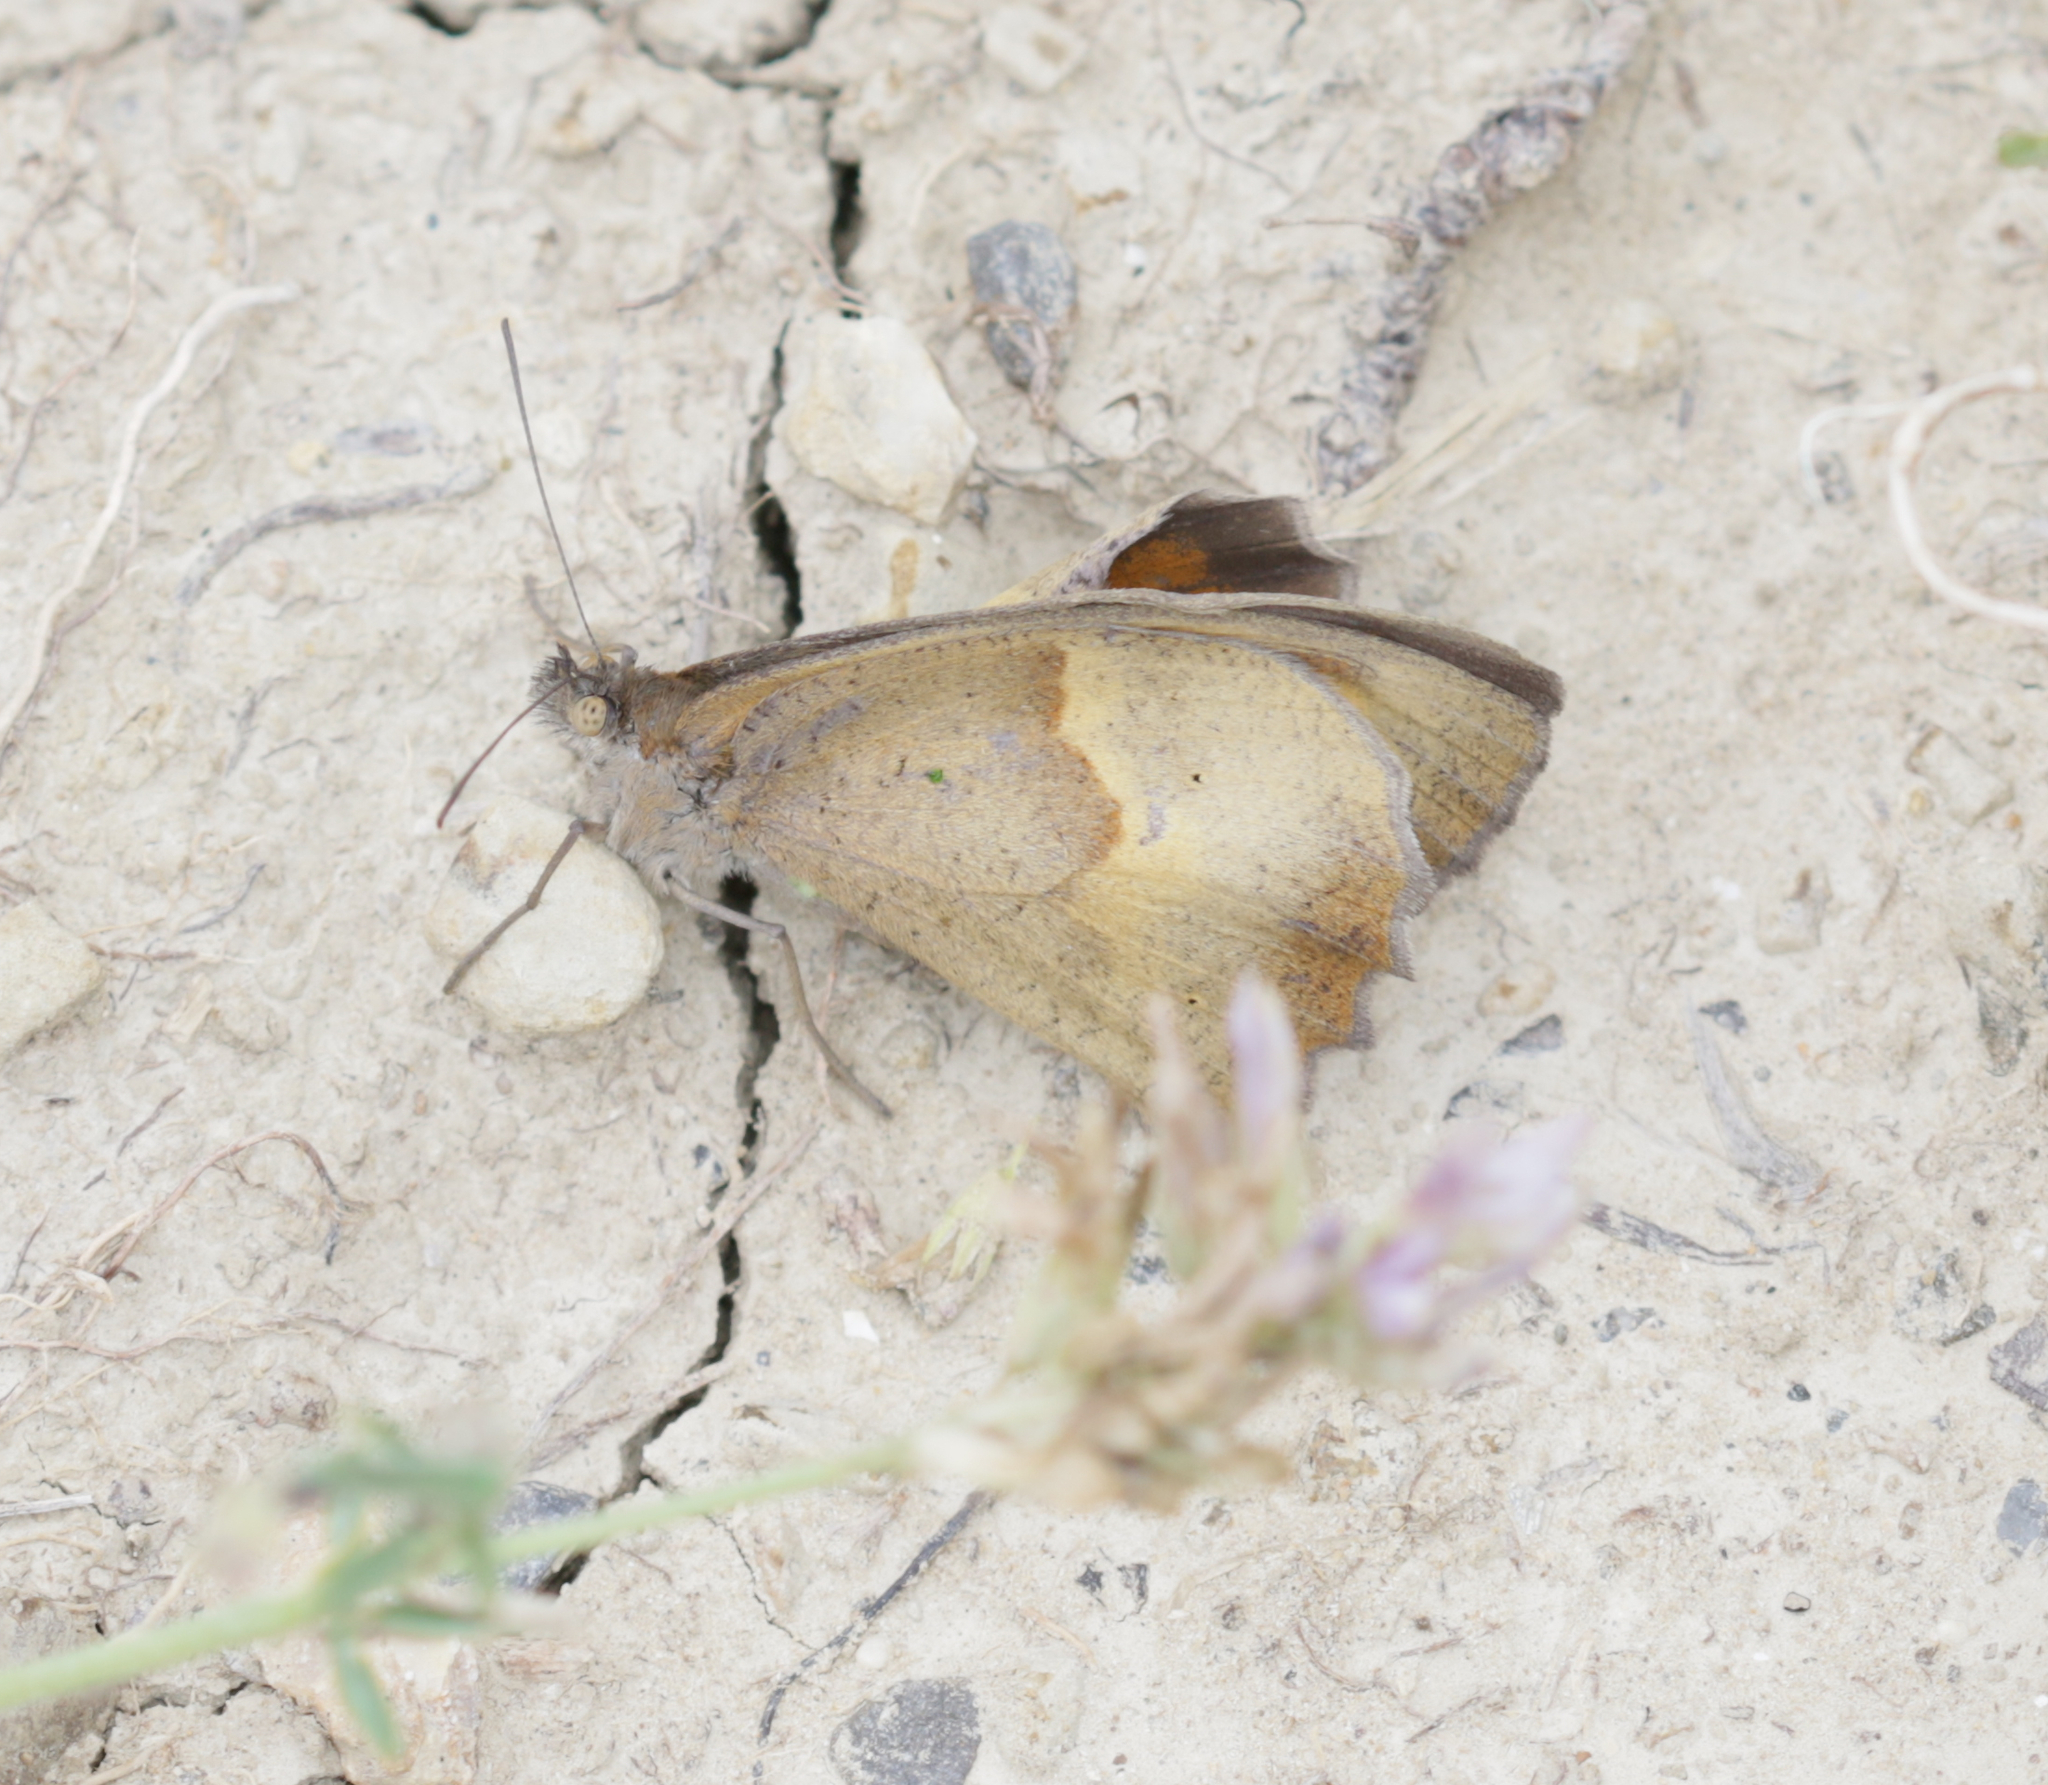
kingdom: Animalia
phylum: Arthropoda
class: Insecta
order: Lepidoptera
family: Nymphalidae
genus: Maniola
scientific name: Maniola jurtina
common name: Meadow brown
